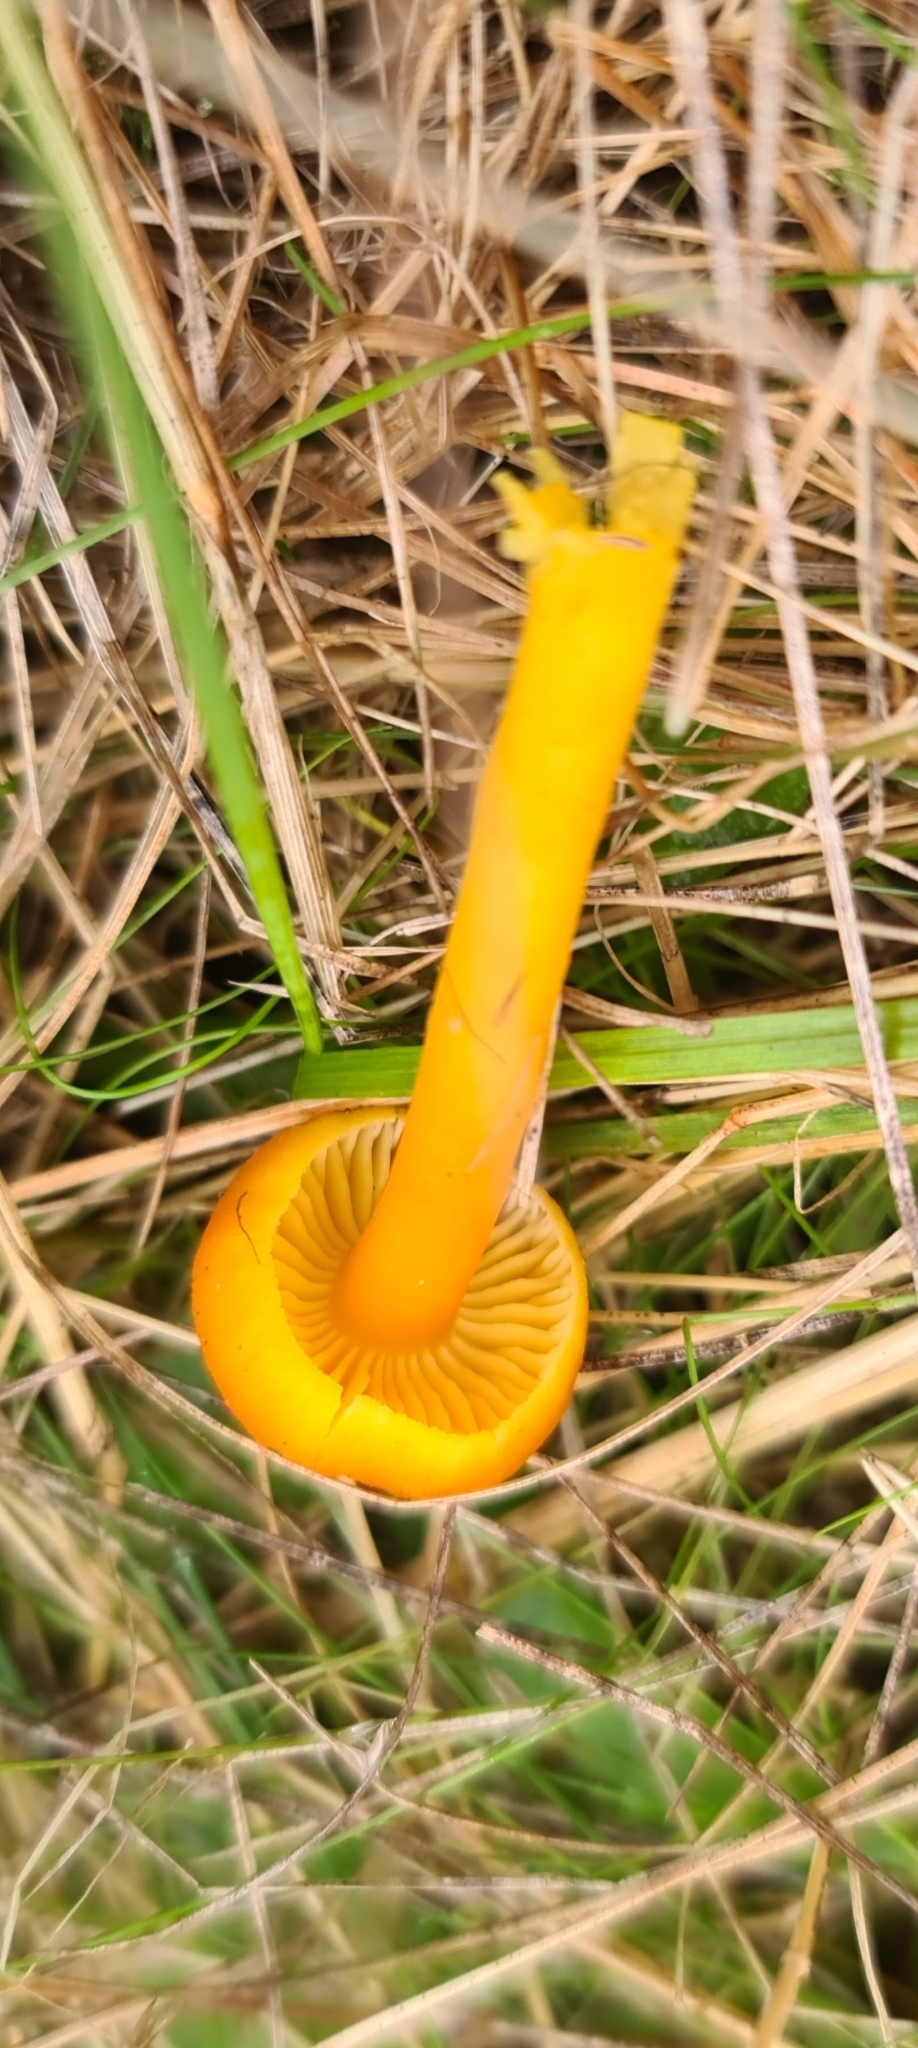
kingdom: Fungi
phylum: Basidiomycota
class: Agaricomycetes
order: Agaricales
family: Hygrophoraceae
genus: Hygrocybe
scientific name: Hygrocybe ceracea
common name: Butter waxcap
